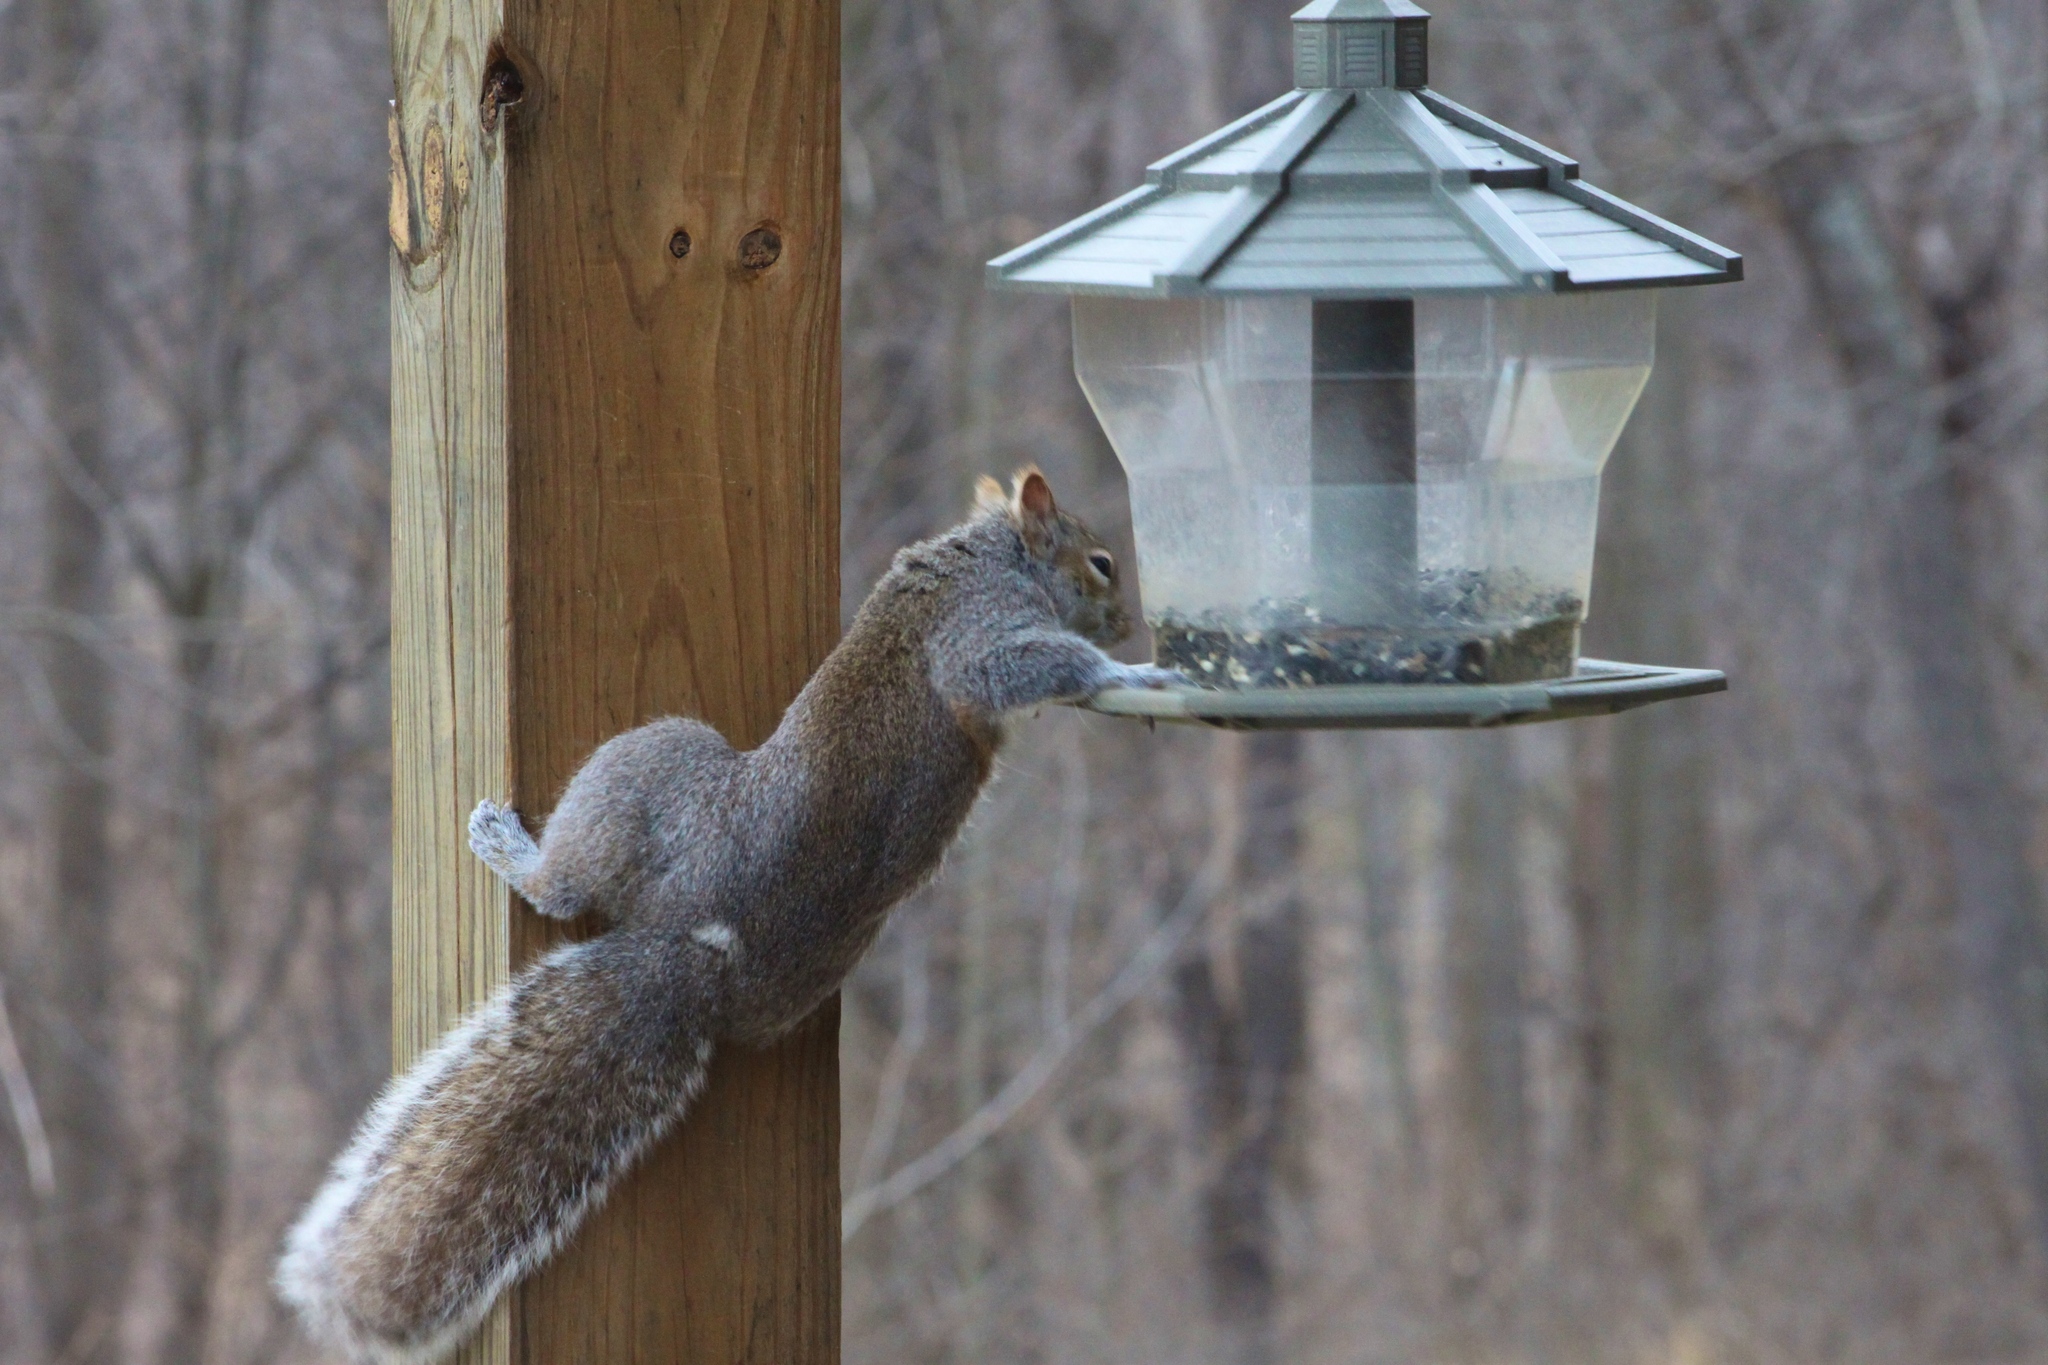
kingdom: Animalia
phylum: Chordata
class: Mammalia
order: Rodentia
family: Sciuridae
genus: Sciurus
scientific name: Sciurus carolinensis
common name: Eastern gray squirrel
